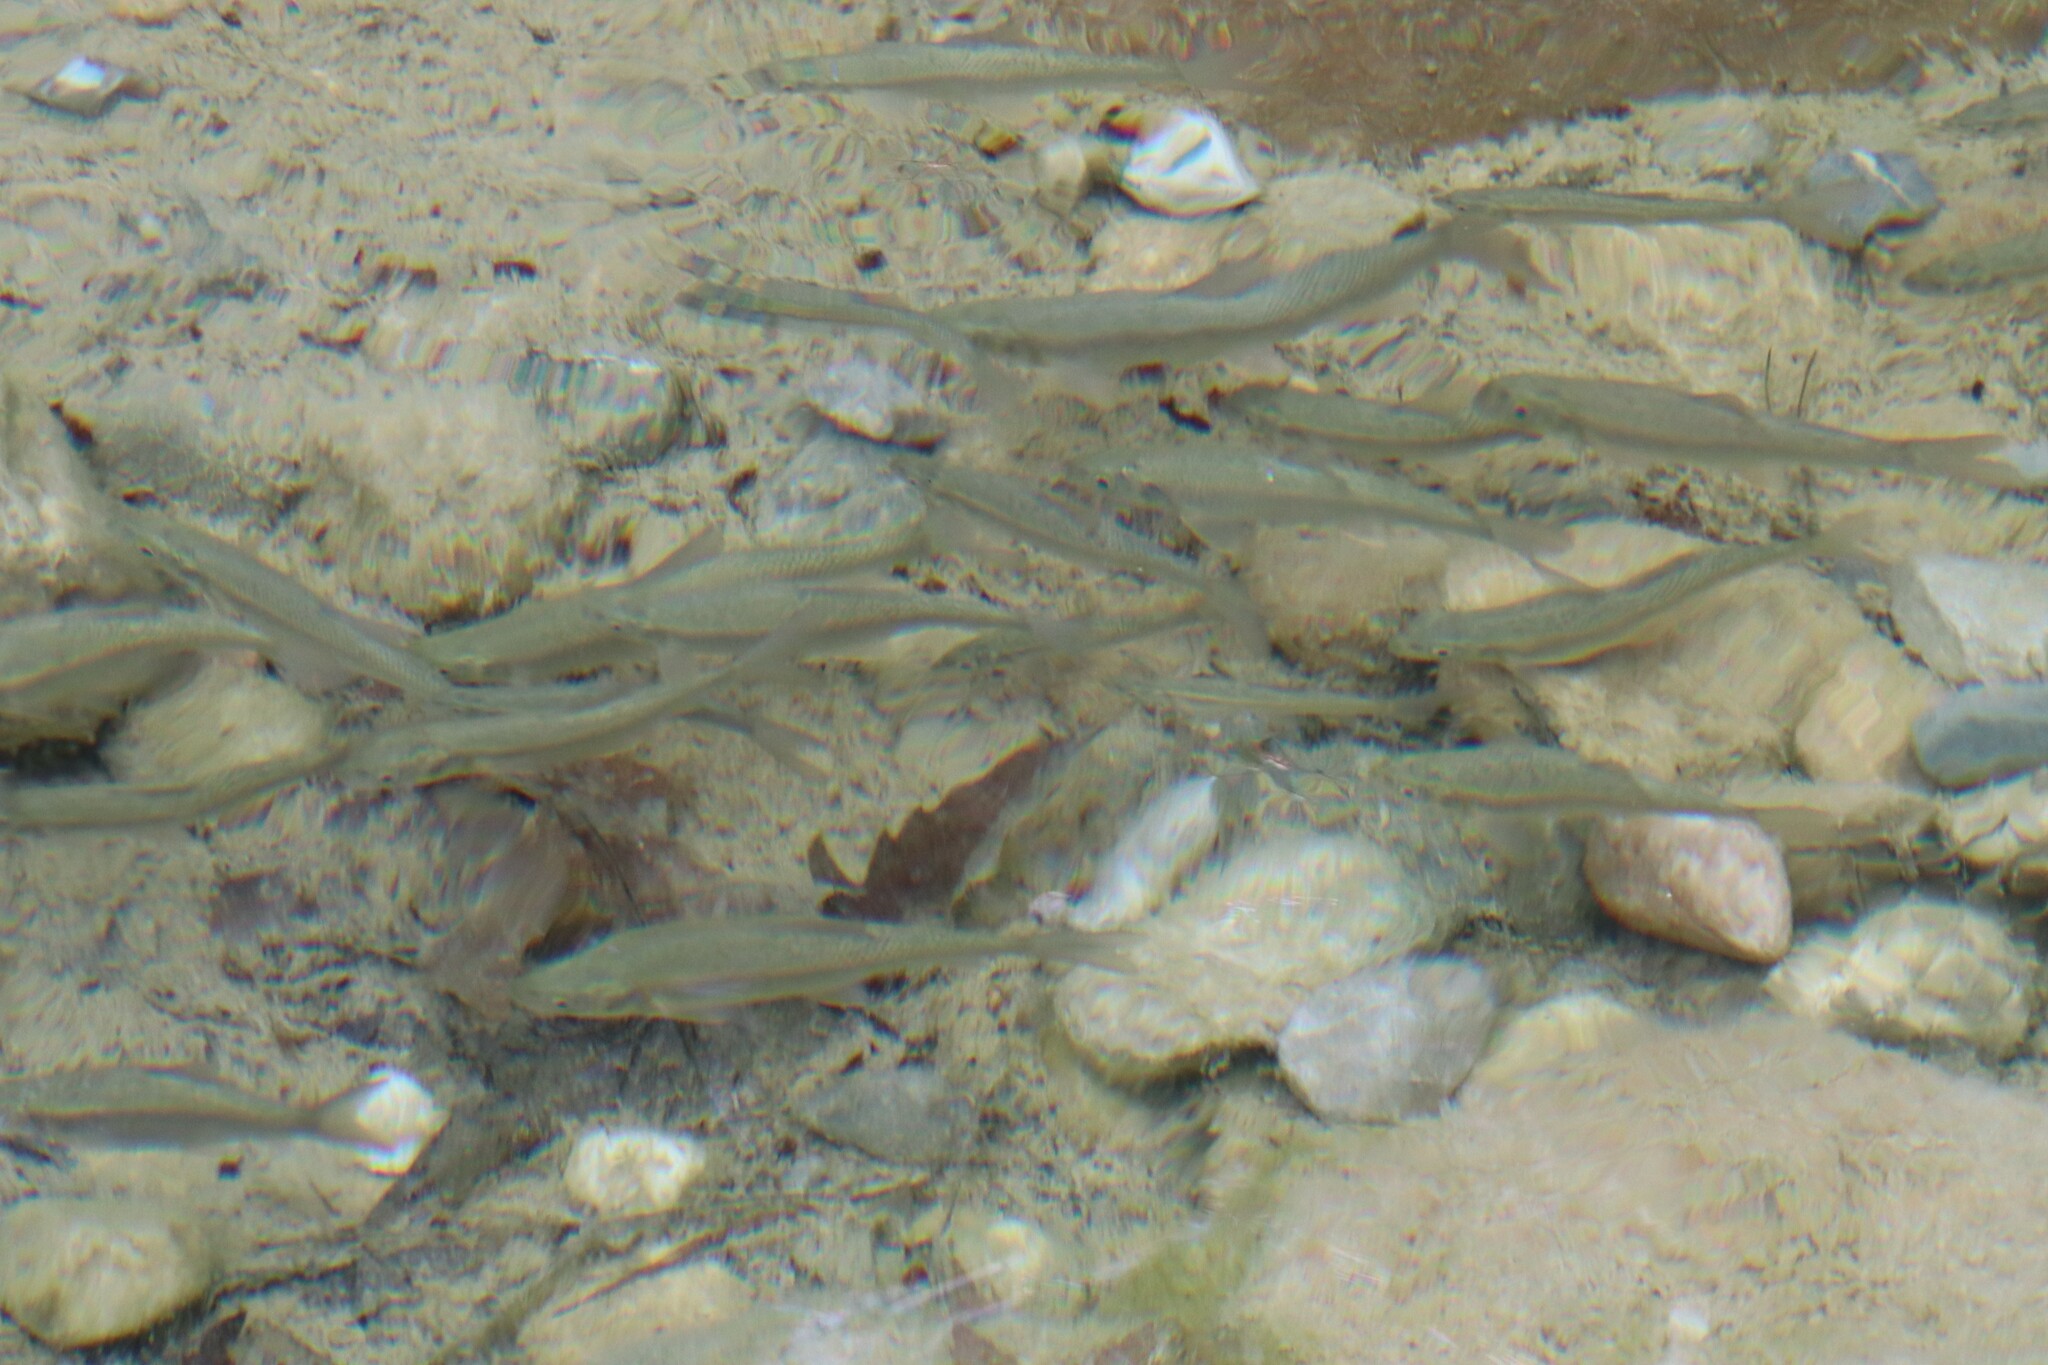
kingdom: Animalia
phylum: Chordata
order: Cypriniformes
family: Cyprinidae
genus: Capoeta
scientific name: Capoeta antalyensis
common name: Pamphylian scraper
